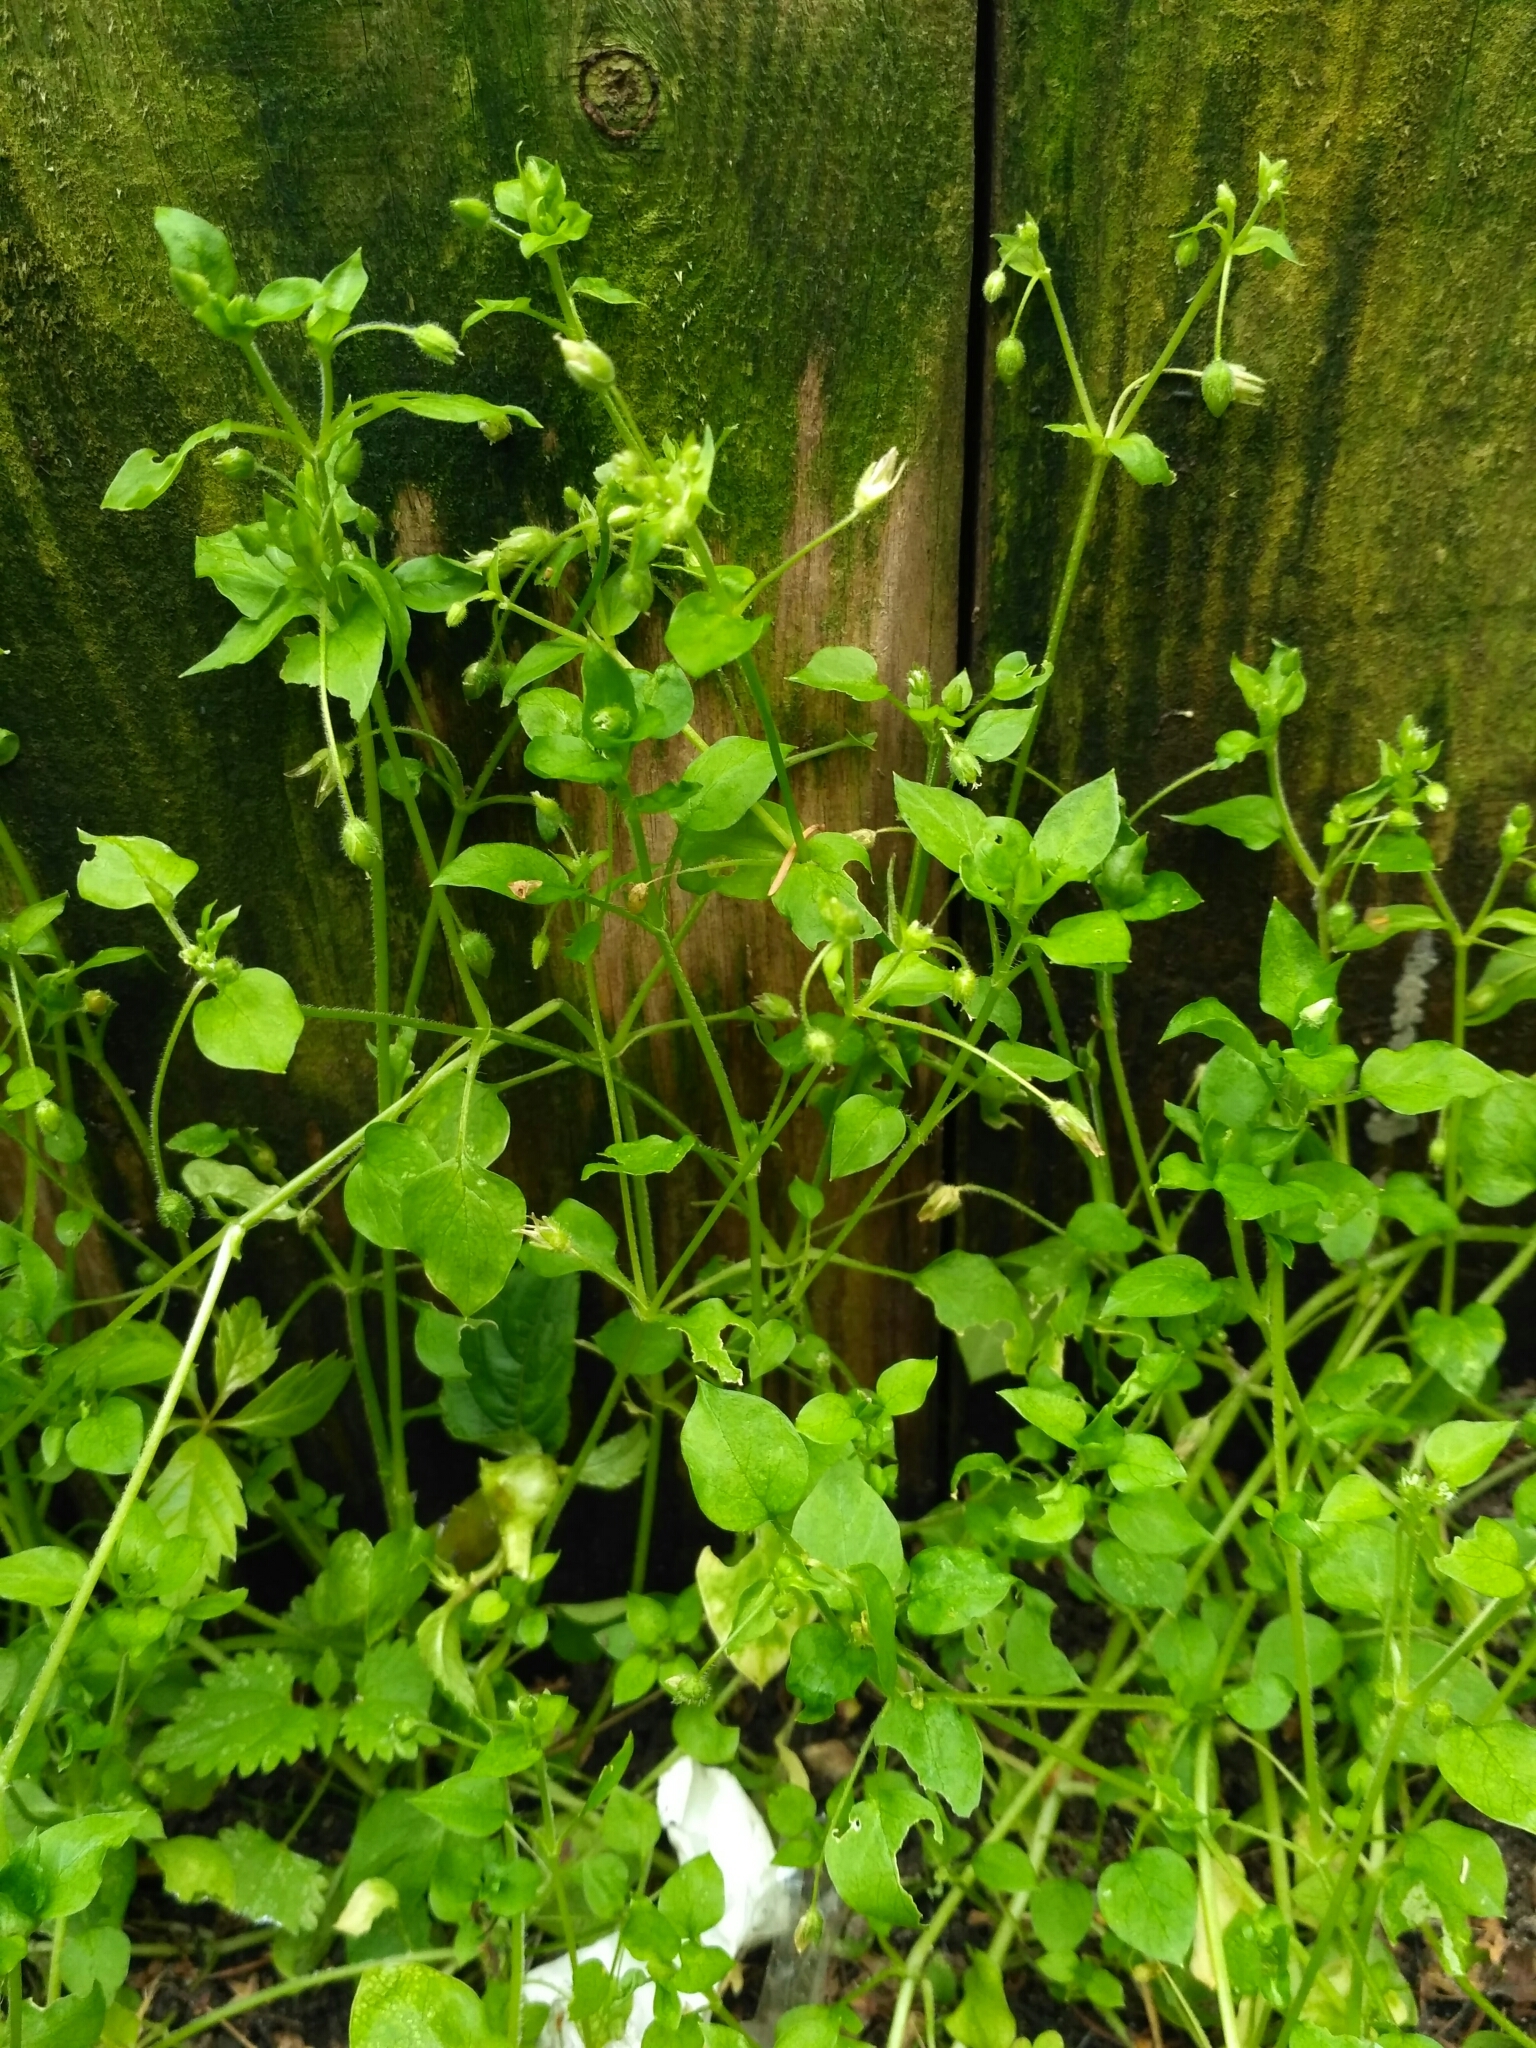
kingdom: Plantae
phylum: Tracheophyta
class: Magnoliopsida
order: Caryophyllales
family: Caryophyllaceae
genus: Stellaria
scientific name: Stellaria media
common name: Common chickweed
